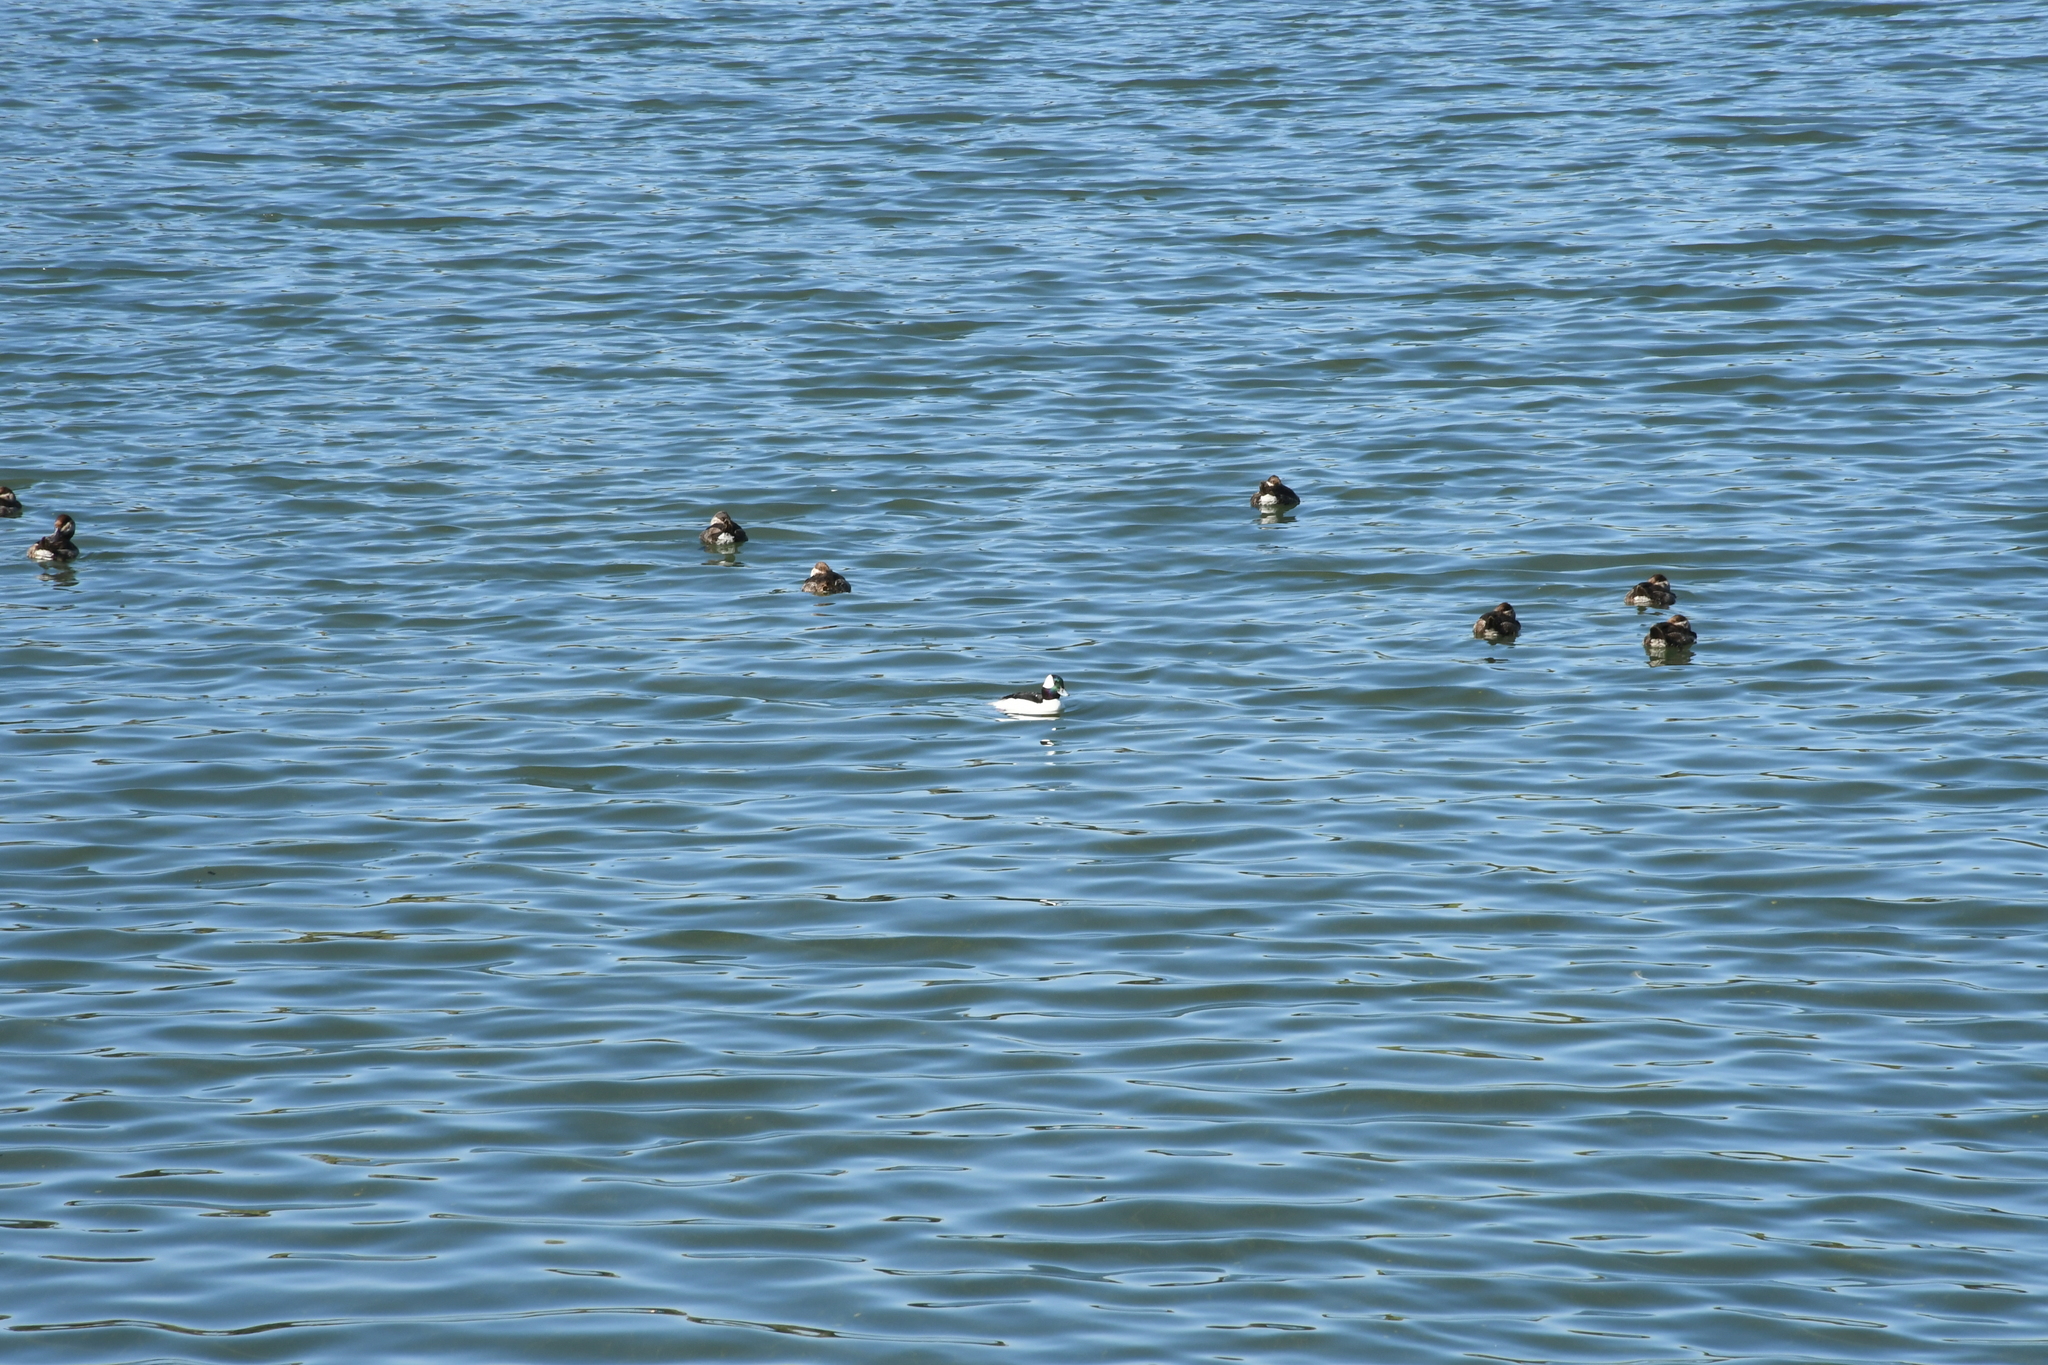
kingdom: Animalia
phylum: Chordata
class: Aves
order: Anseriformes
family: Anatidae
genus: Bucephala
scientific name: Bucephala albeola
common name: Bufflehead
